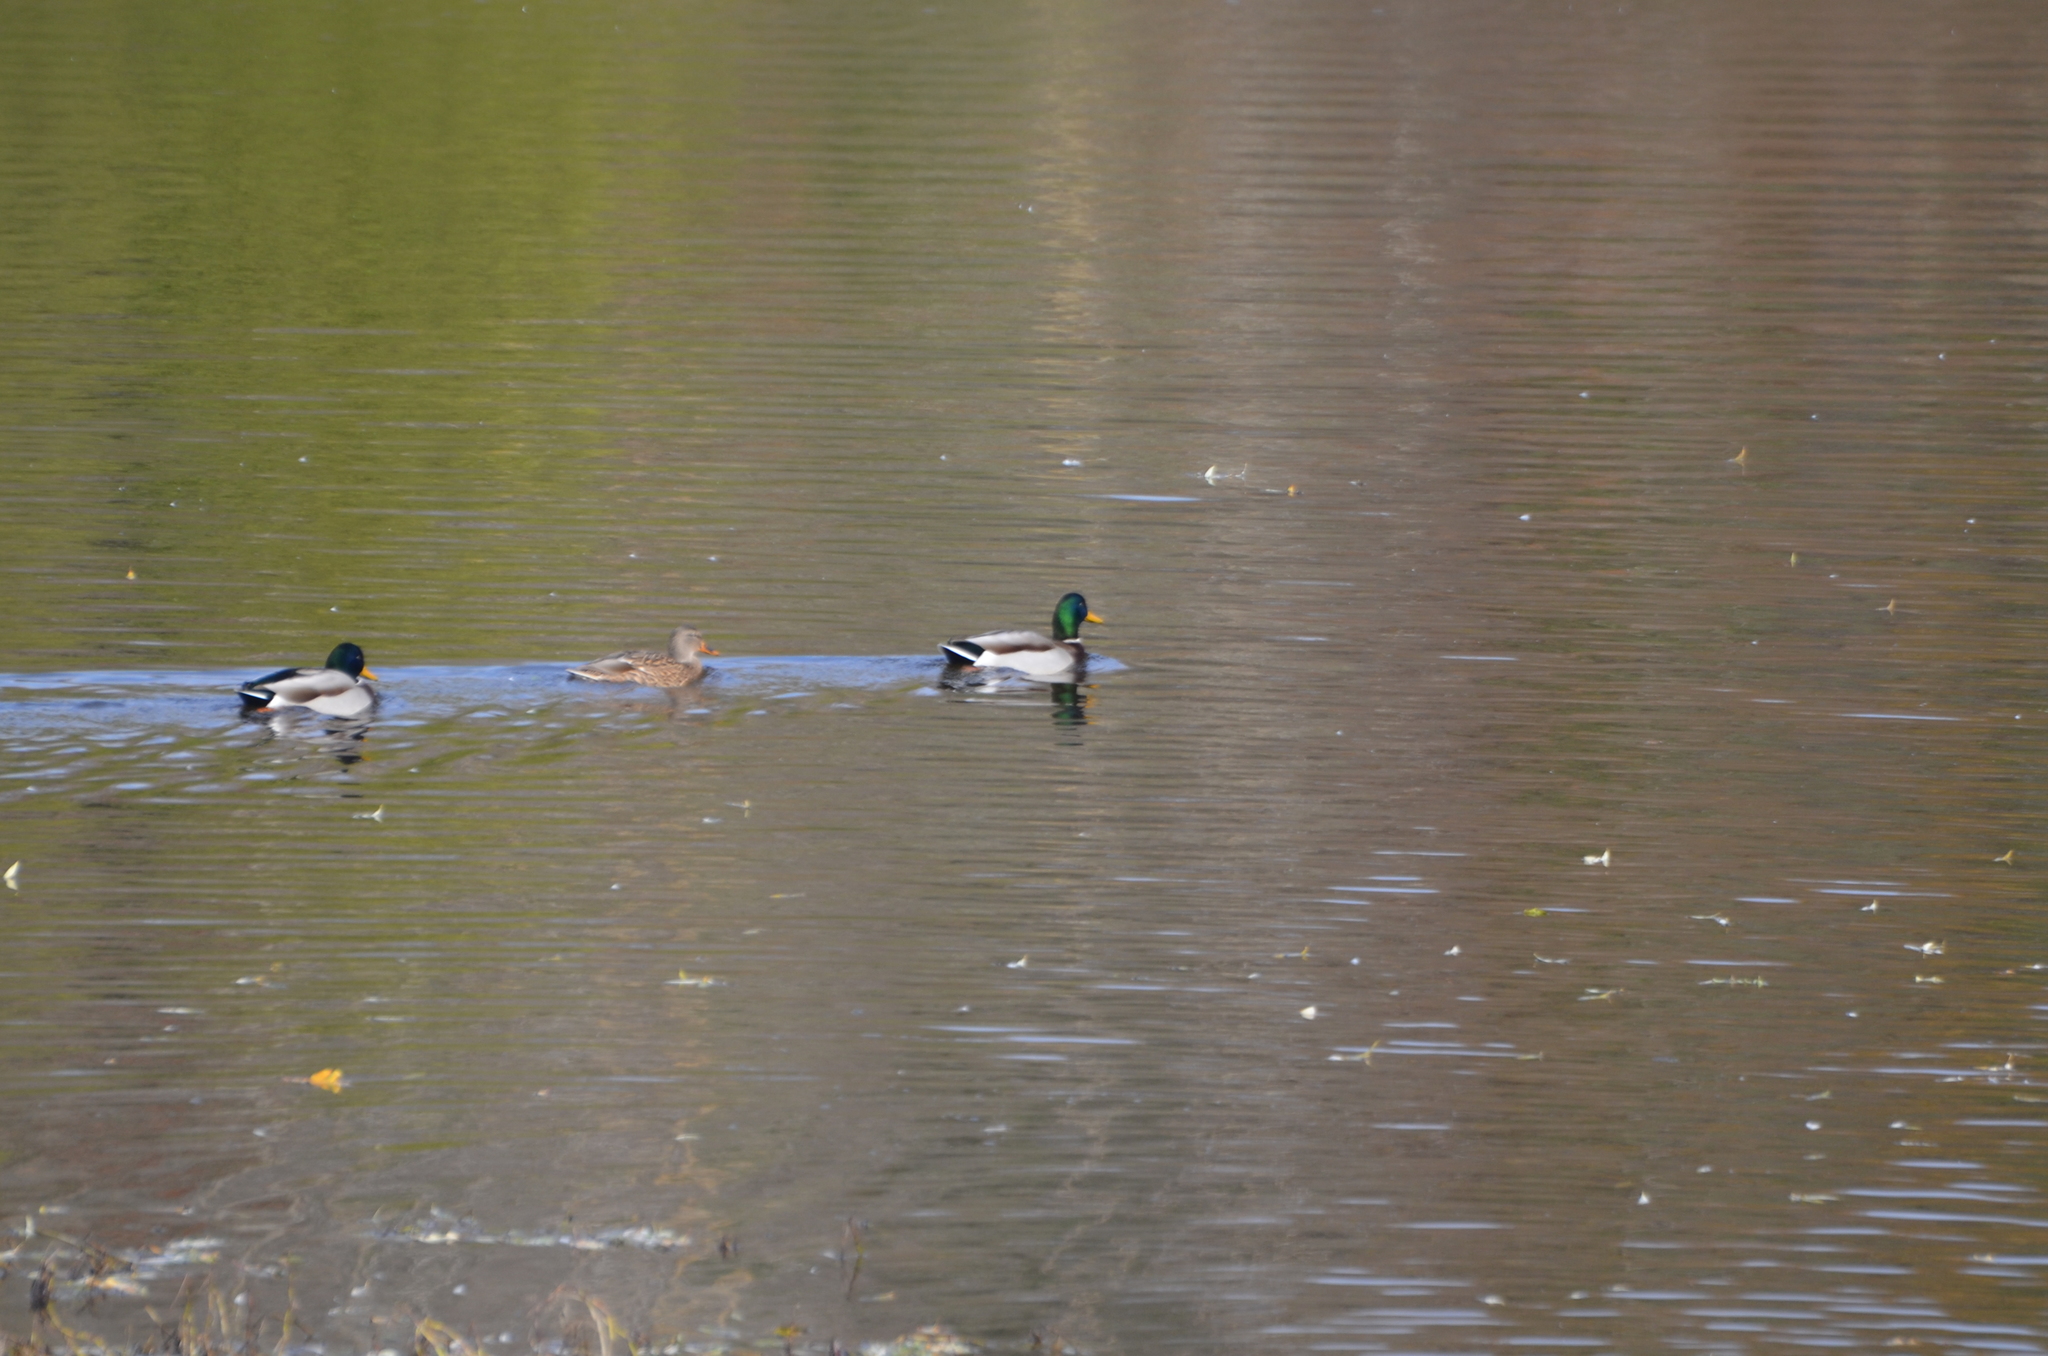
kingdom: Animalia
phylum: Chordata
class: Aves
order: Anseriformes
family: Anatidae
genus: Anas
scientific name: Anas platyrhynchos
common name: Mallard
